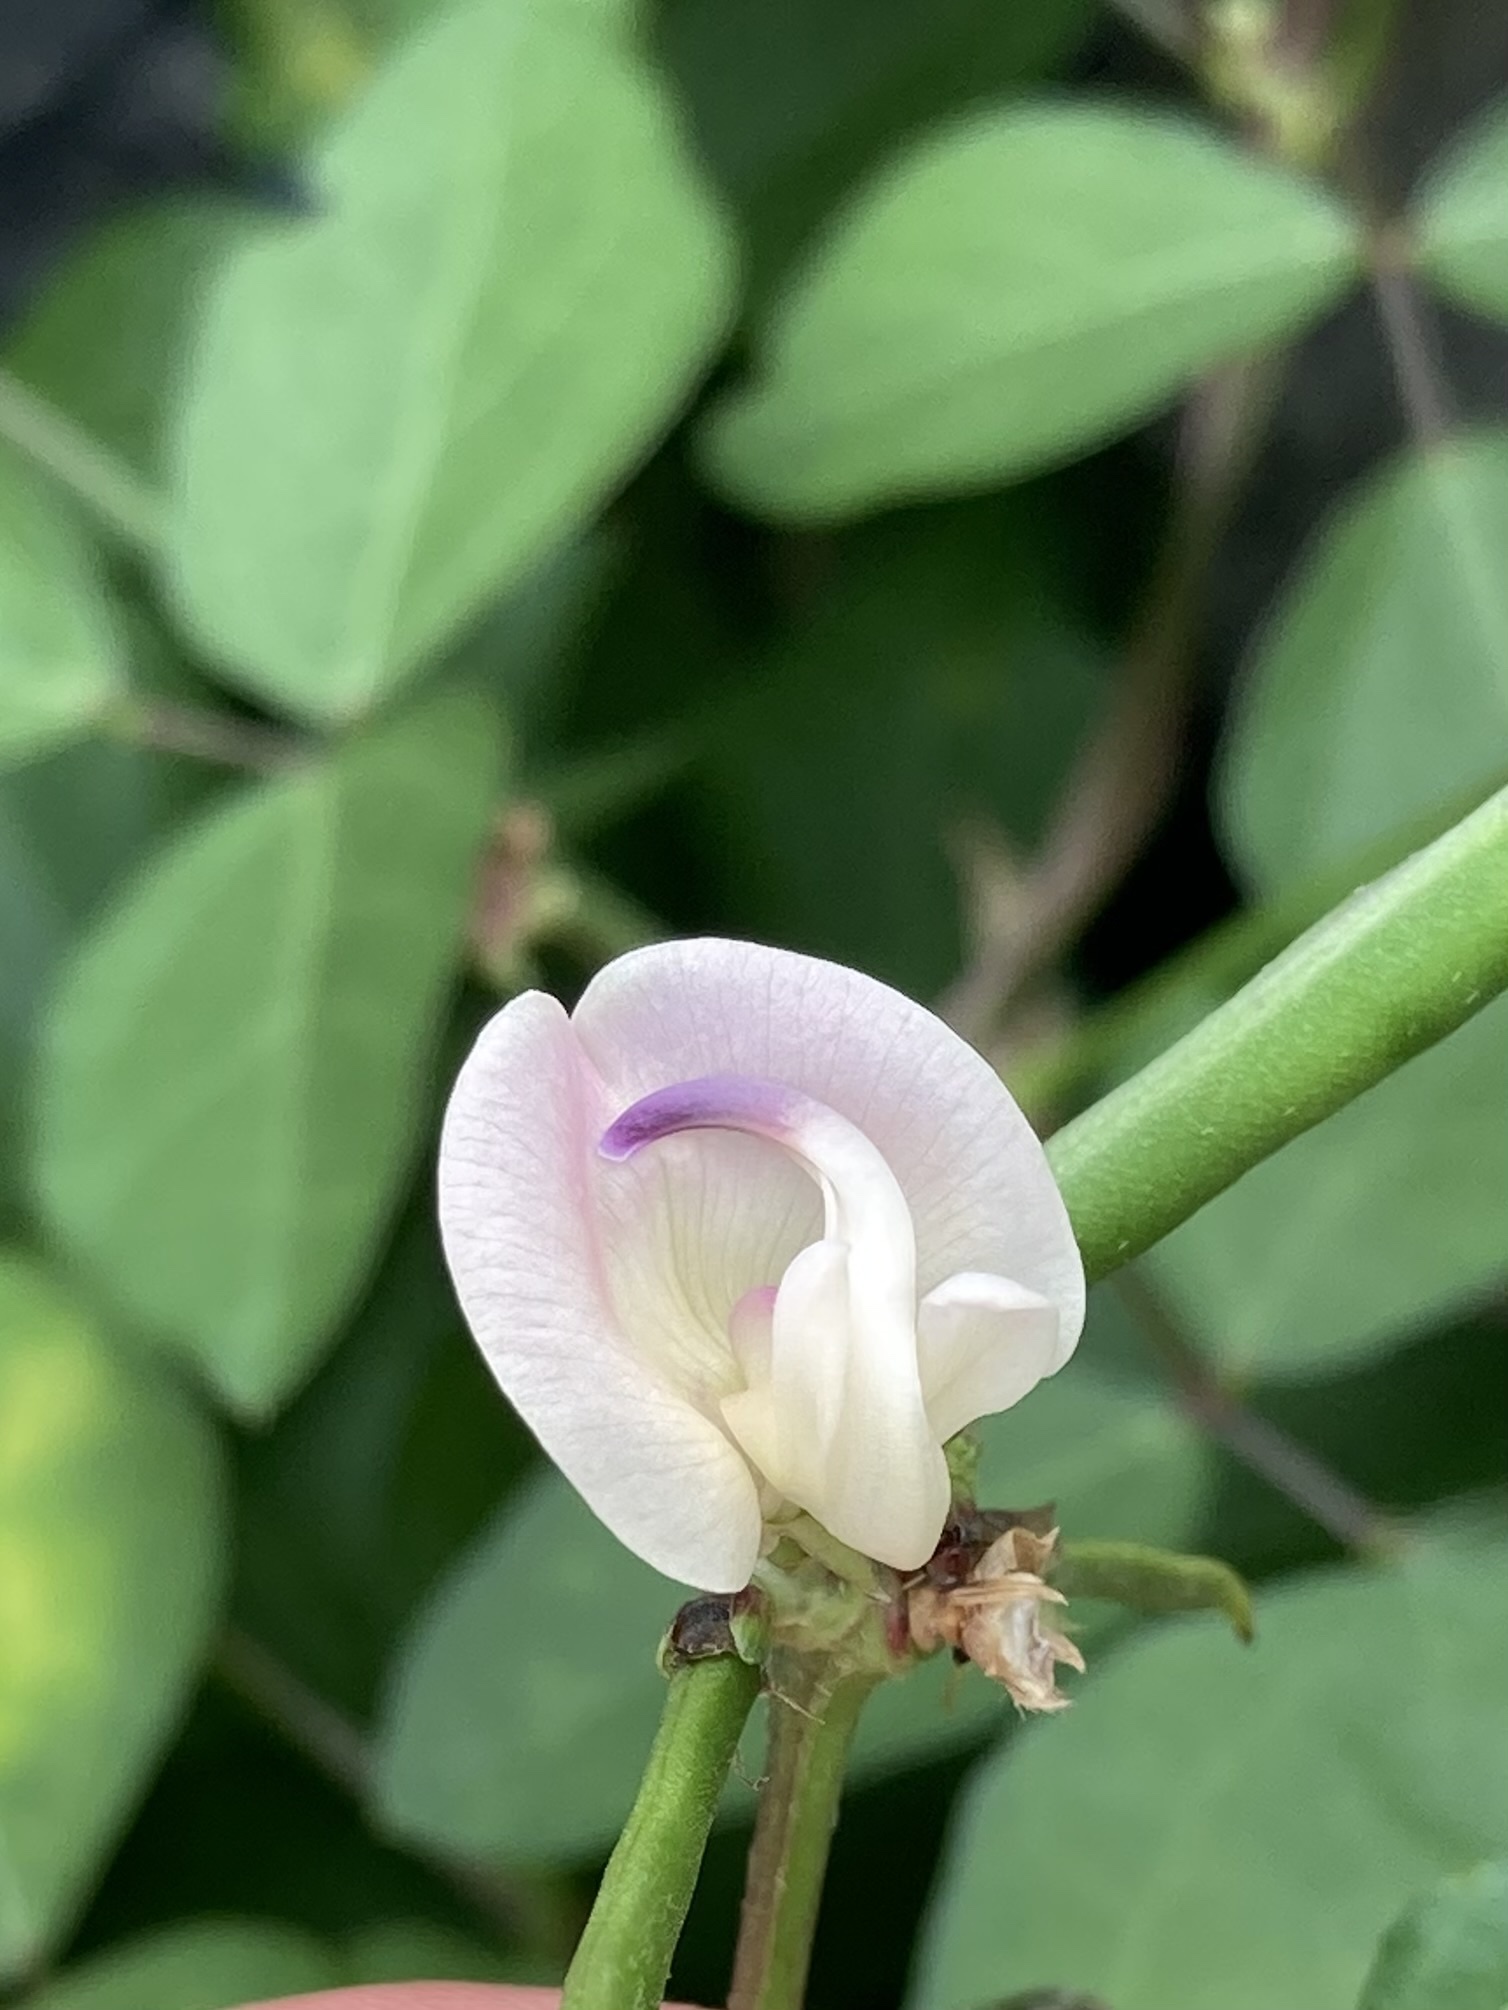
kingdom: Plantae
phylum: Tracheophyta
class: Magnoliopsida
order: Fabales
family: Fabaceae
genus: Strophostyles
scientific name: Strophostyles helvola
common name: Trailing wild bean
